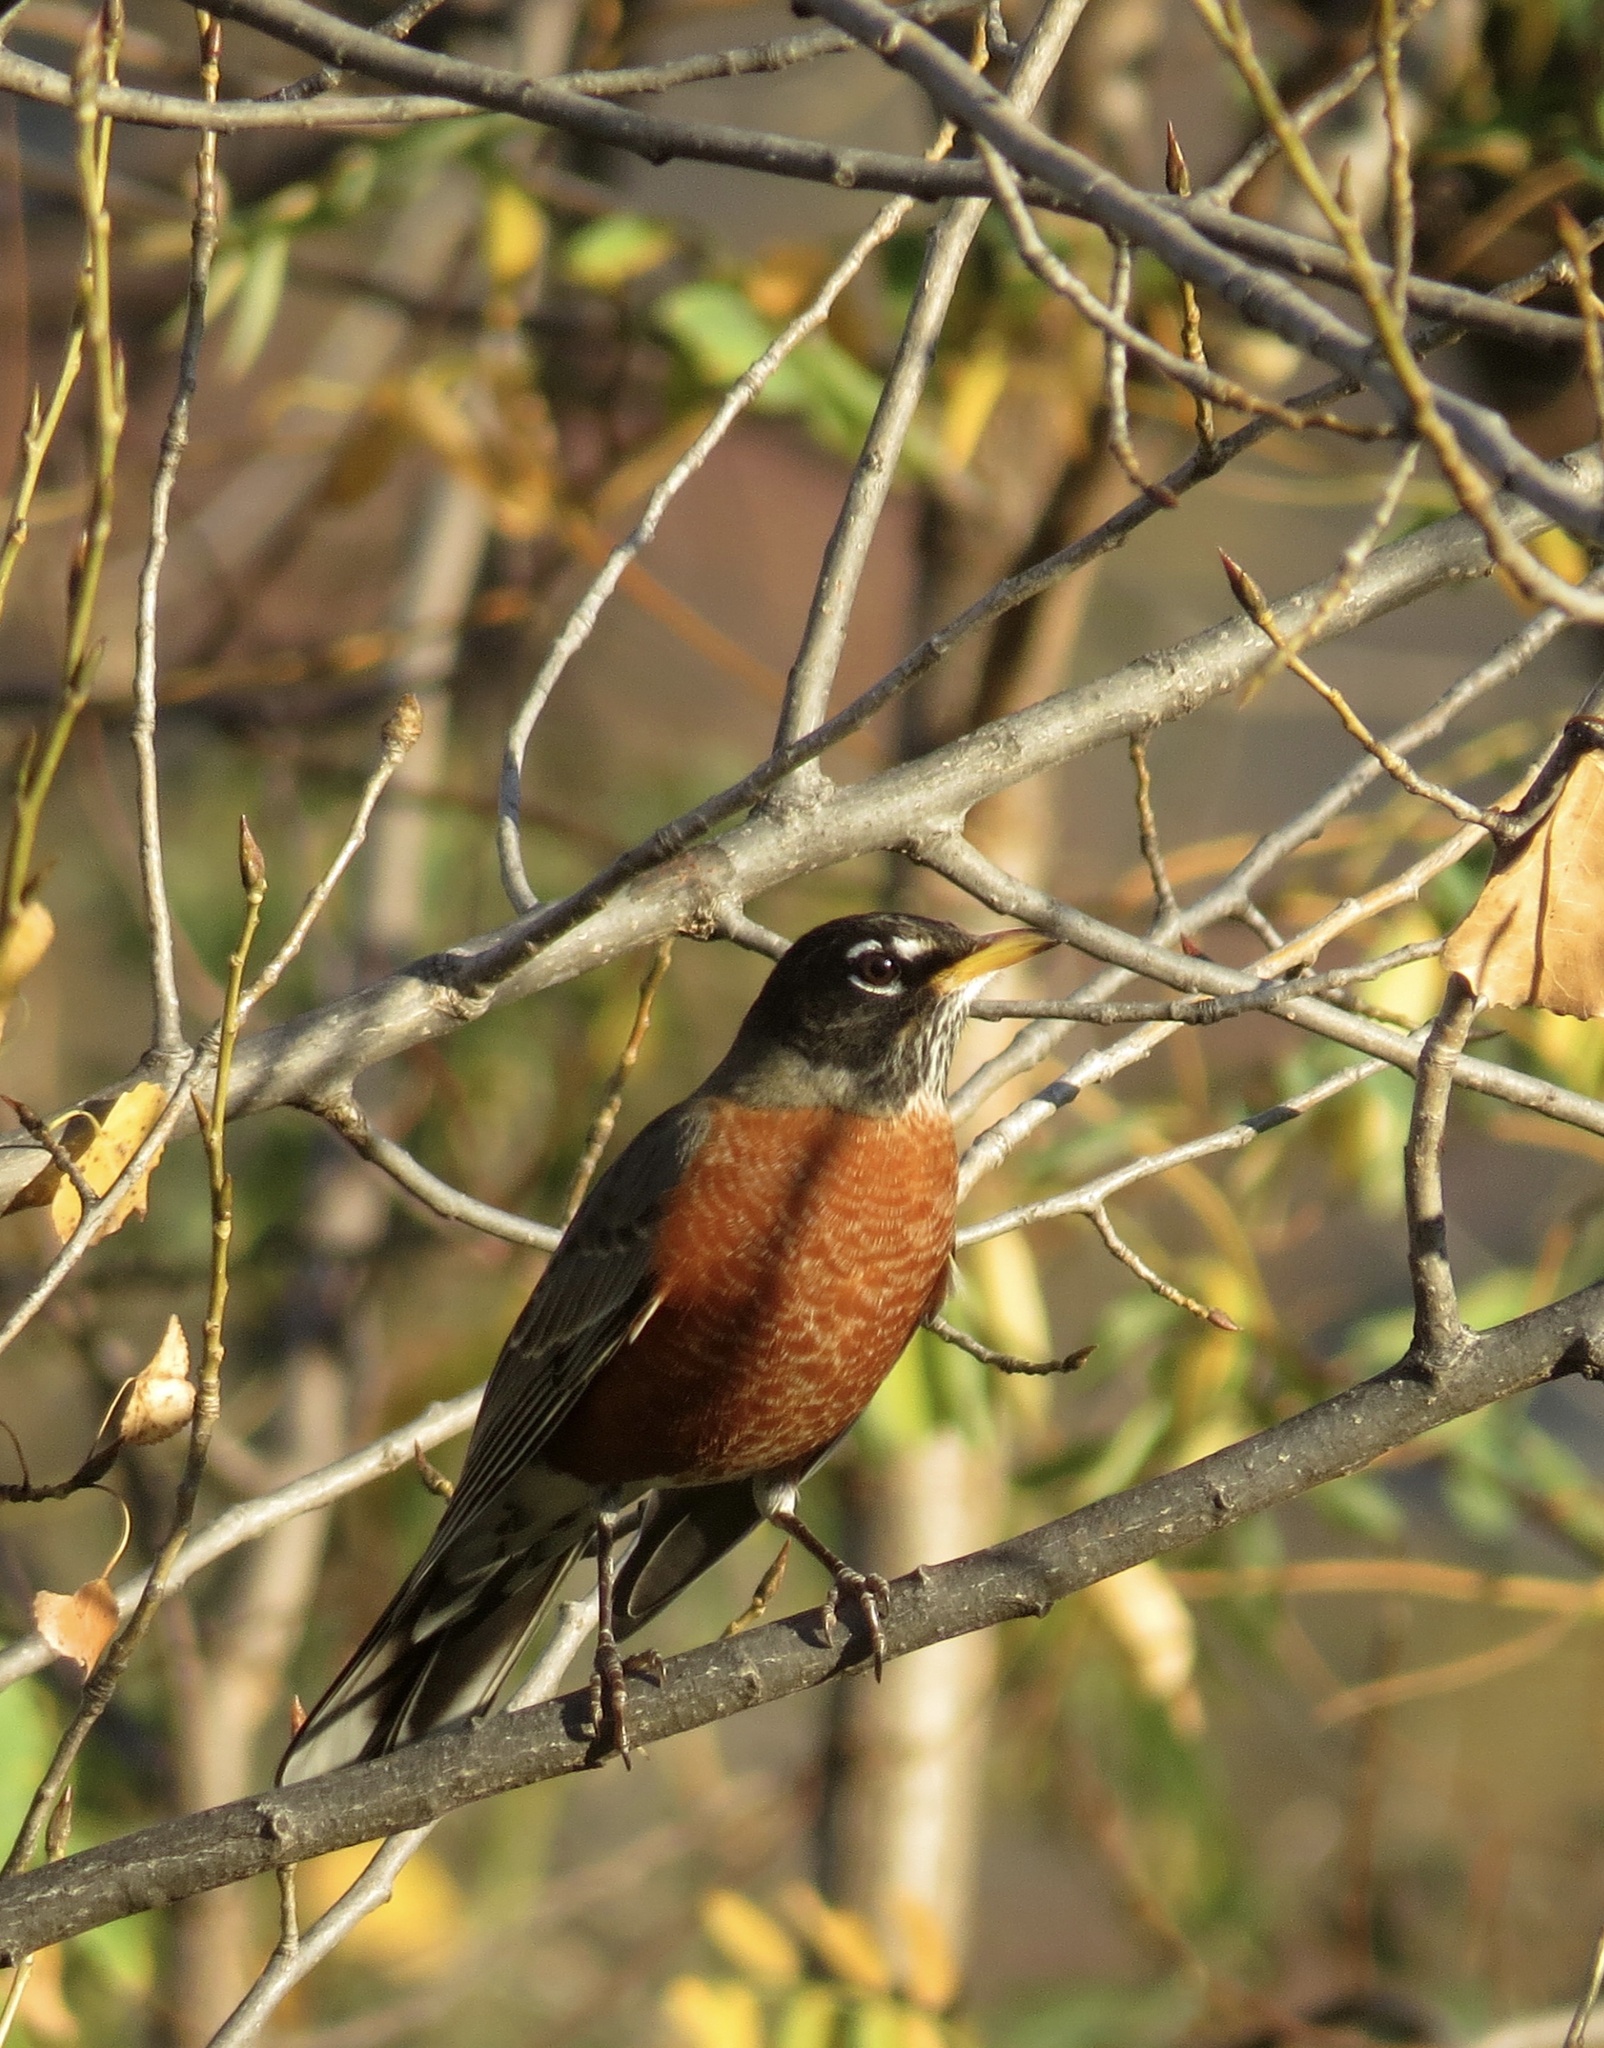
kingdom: Animalia
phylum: Chordata
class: Aves
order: Passeriformes
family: Turdidae
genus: Turdus
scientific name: Turdus migratorius
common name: American robin
